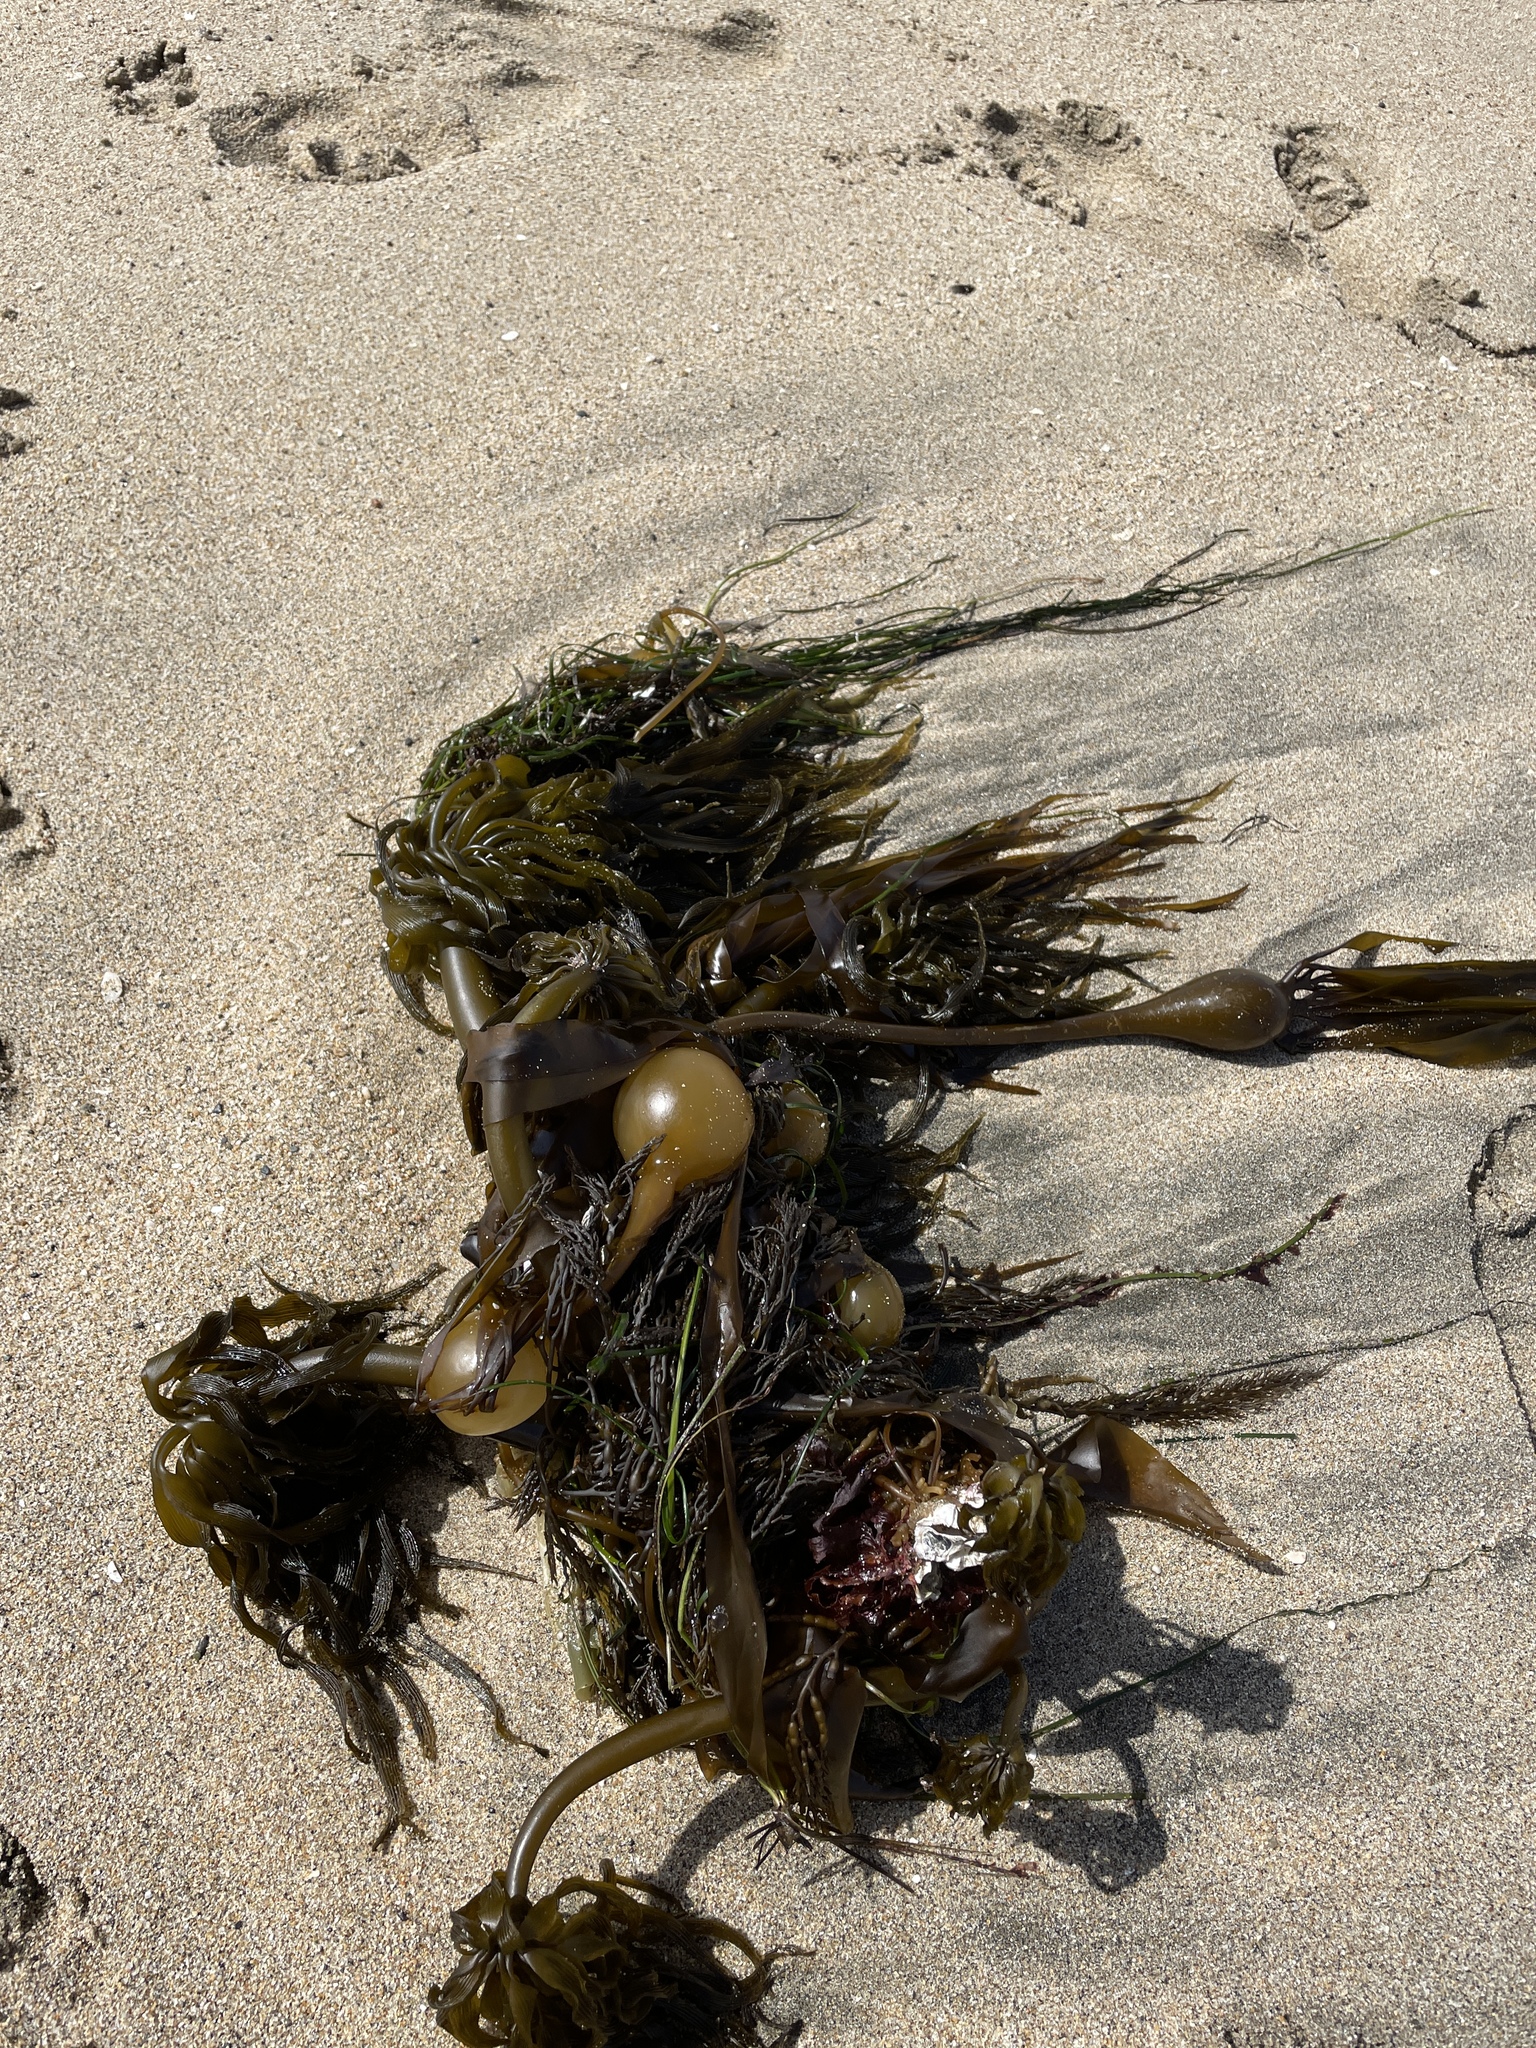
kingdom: Chromista
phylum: Ochrophyta
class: Phaeophyceae
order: Laminariales
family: Laminariaceae
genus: Postelsia
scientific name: Postelsia palmiformis
